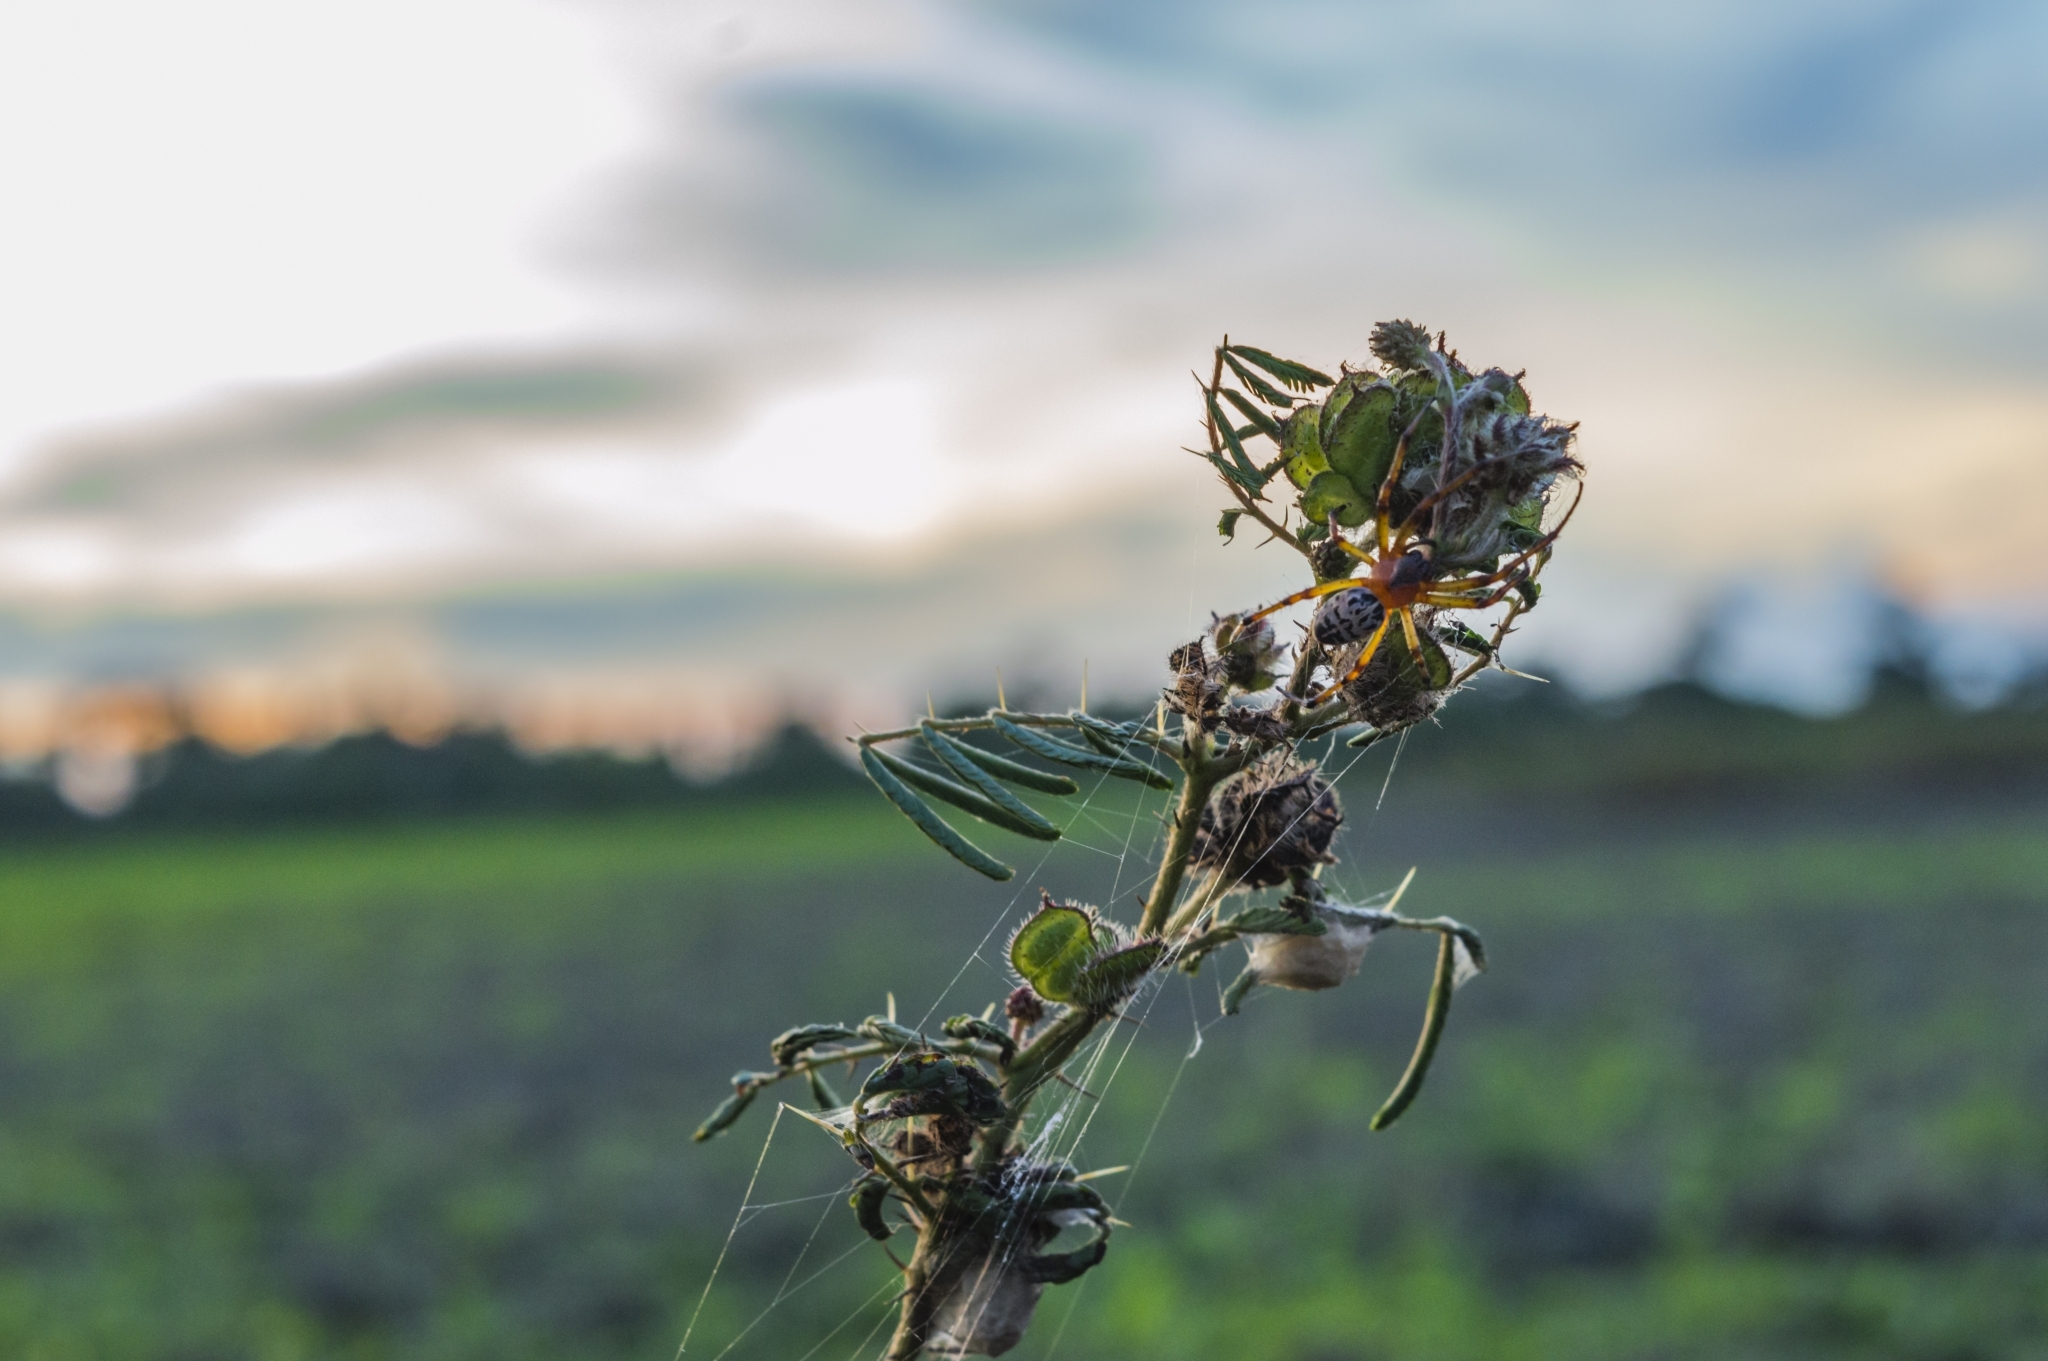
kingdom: Animalia
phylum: Arthropoda
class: Arachnida
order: Araneae
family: Araneidae
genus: Alpaida
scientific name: Alpaida veniliae
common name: Orb weavers
